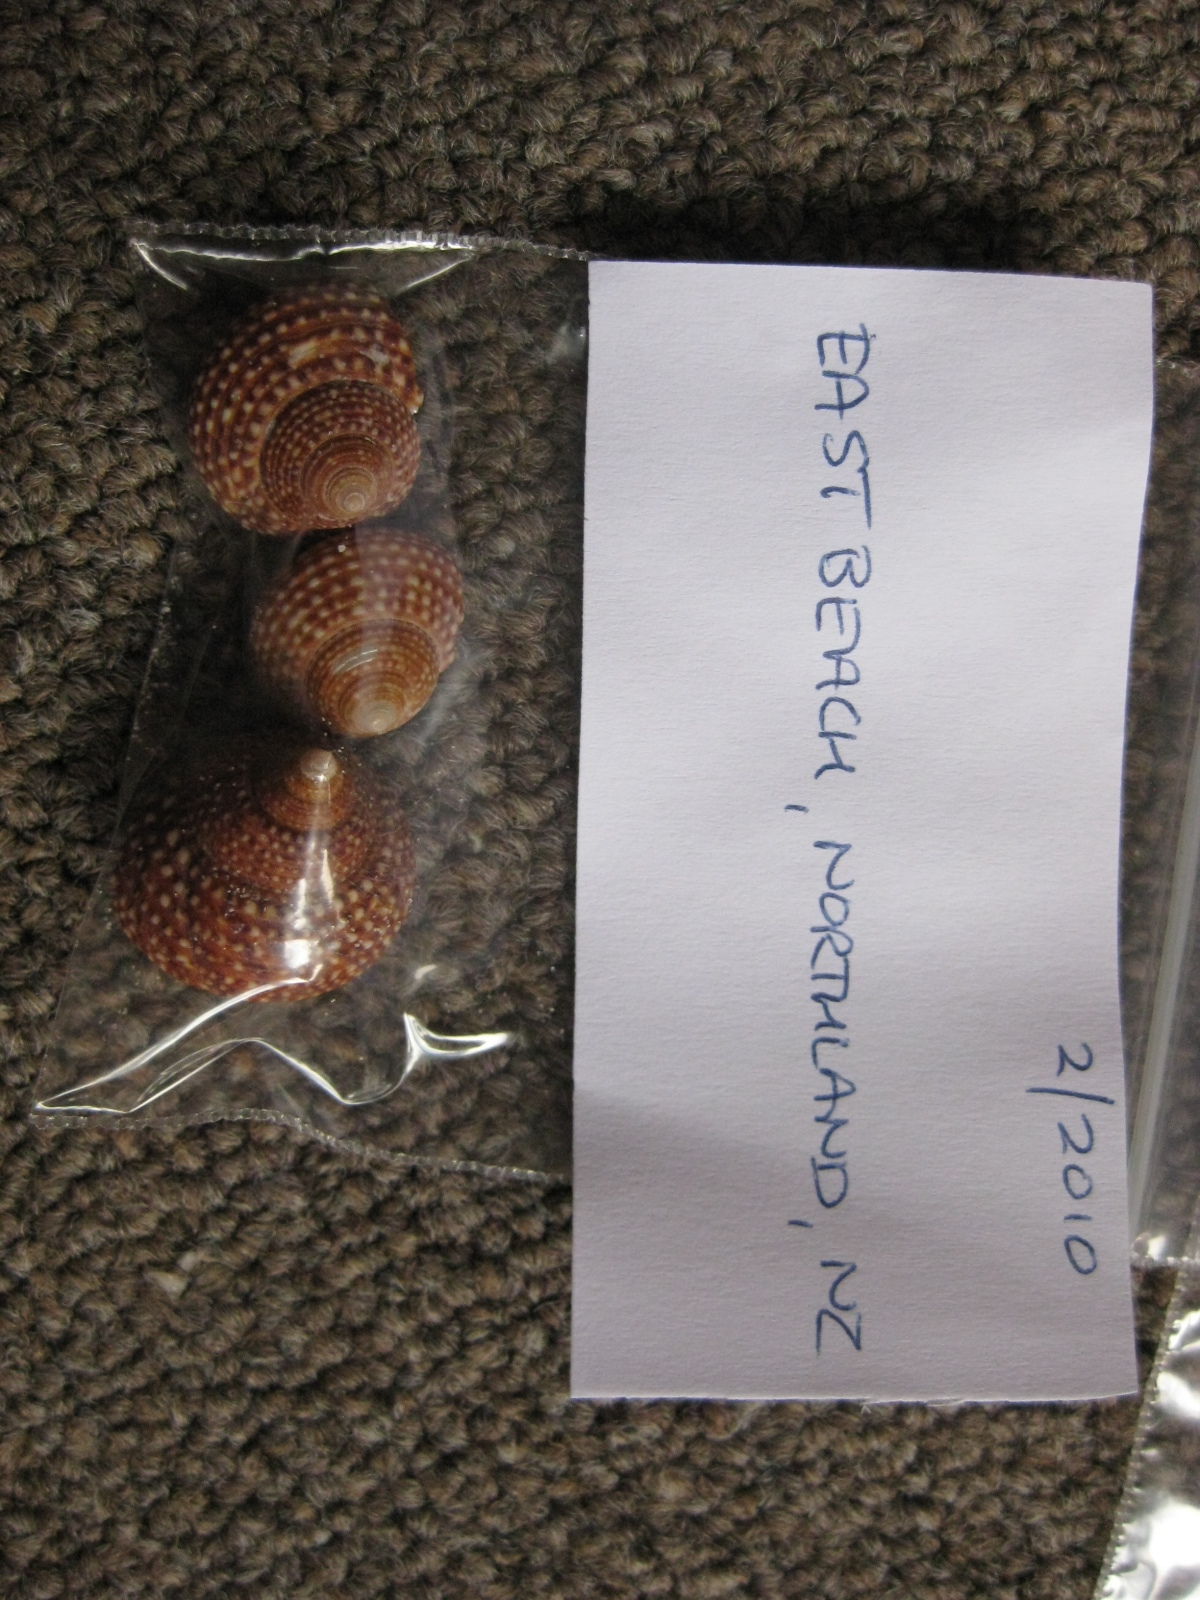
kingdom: Animalia
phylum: Mollusca
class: Gastropoda
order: Trochida
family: Calliostomatidae
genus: Maurea
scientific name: Maurea punctulata
